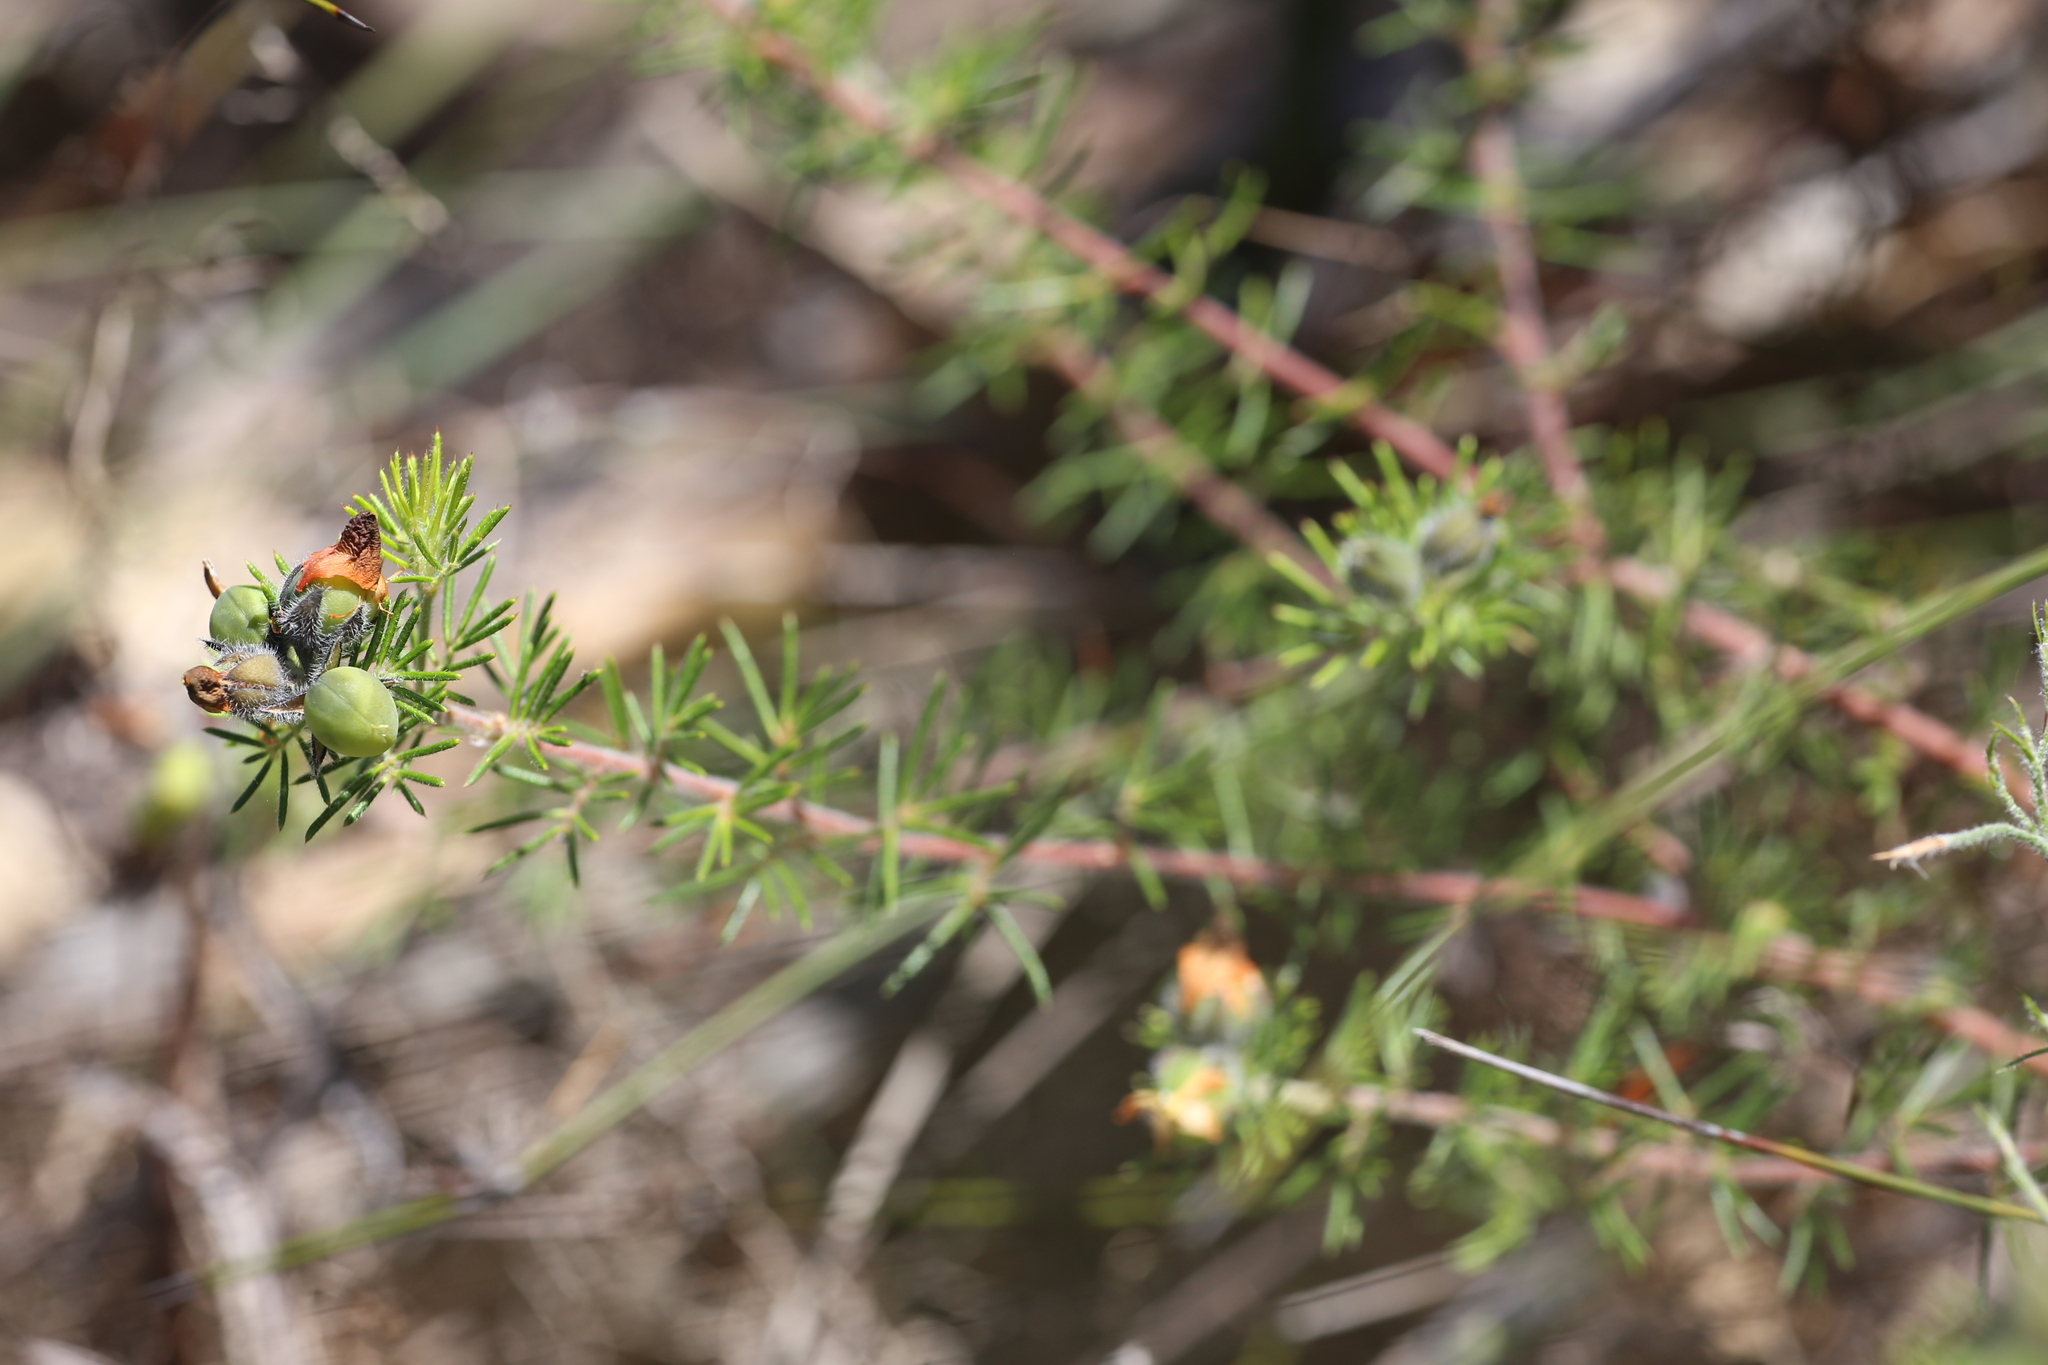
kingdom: Plantae
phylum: Tracheophyta
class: Magnoliopsida
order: Fabales
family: Fabaceae
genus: Gompholobium
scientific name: Gompholobium tomentosum
